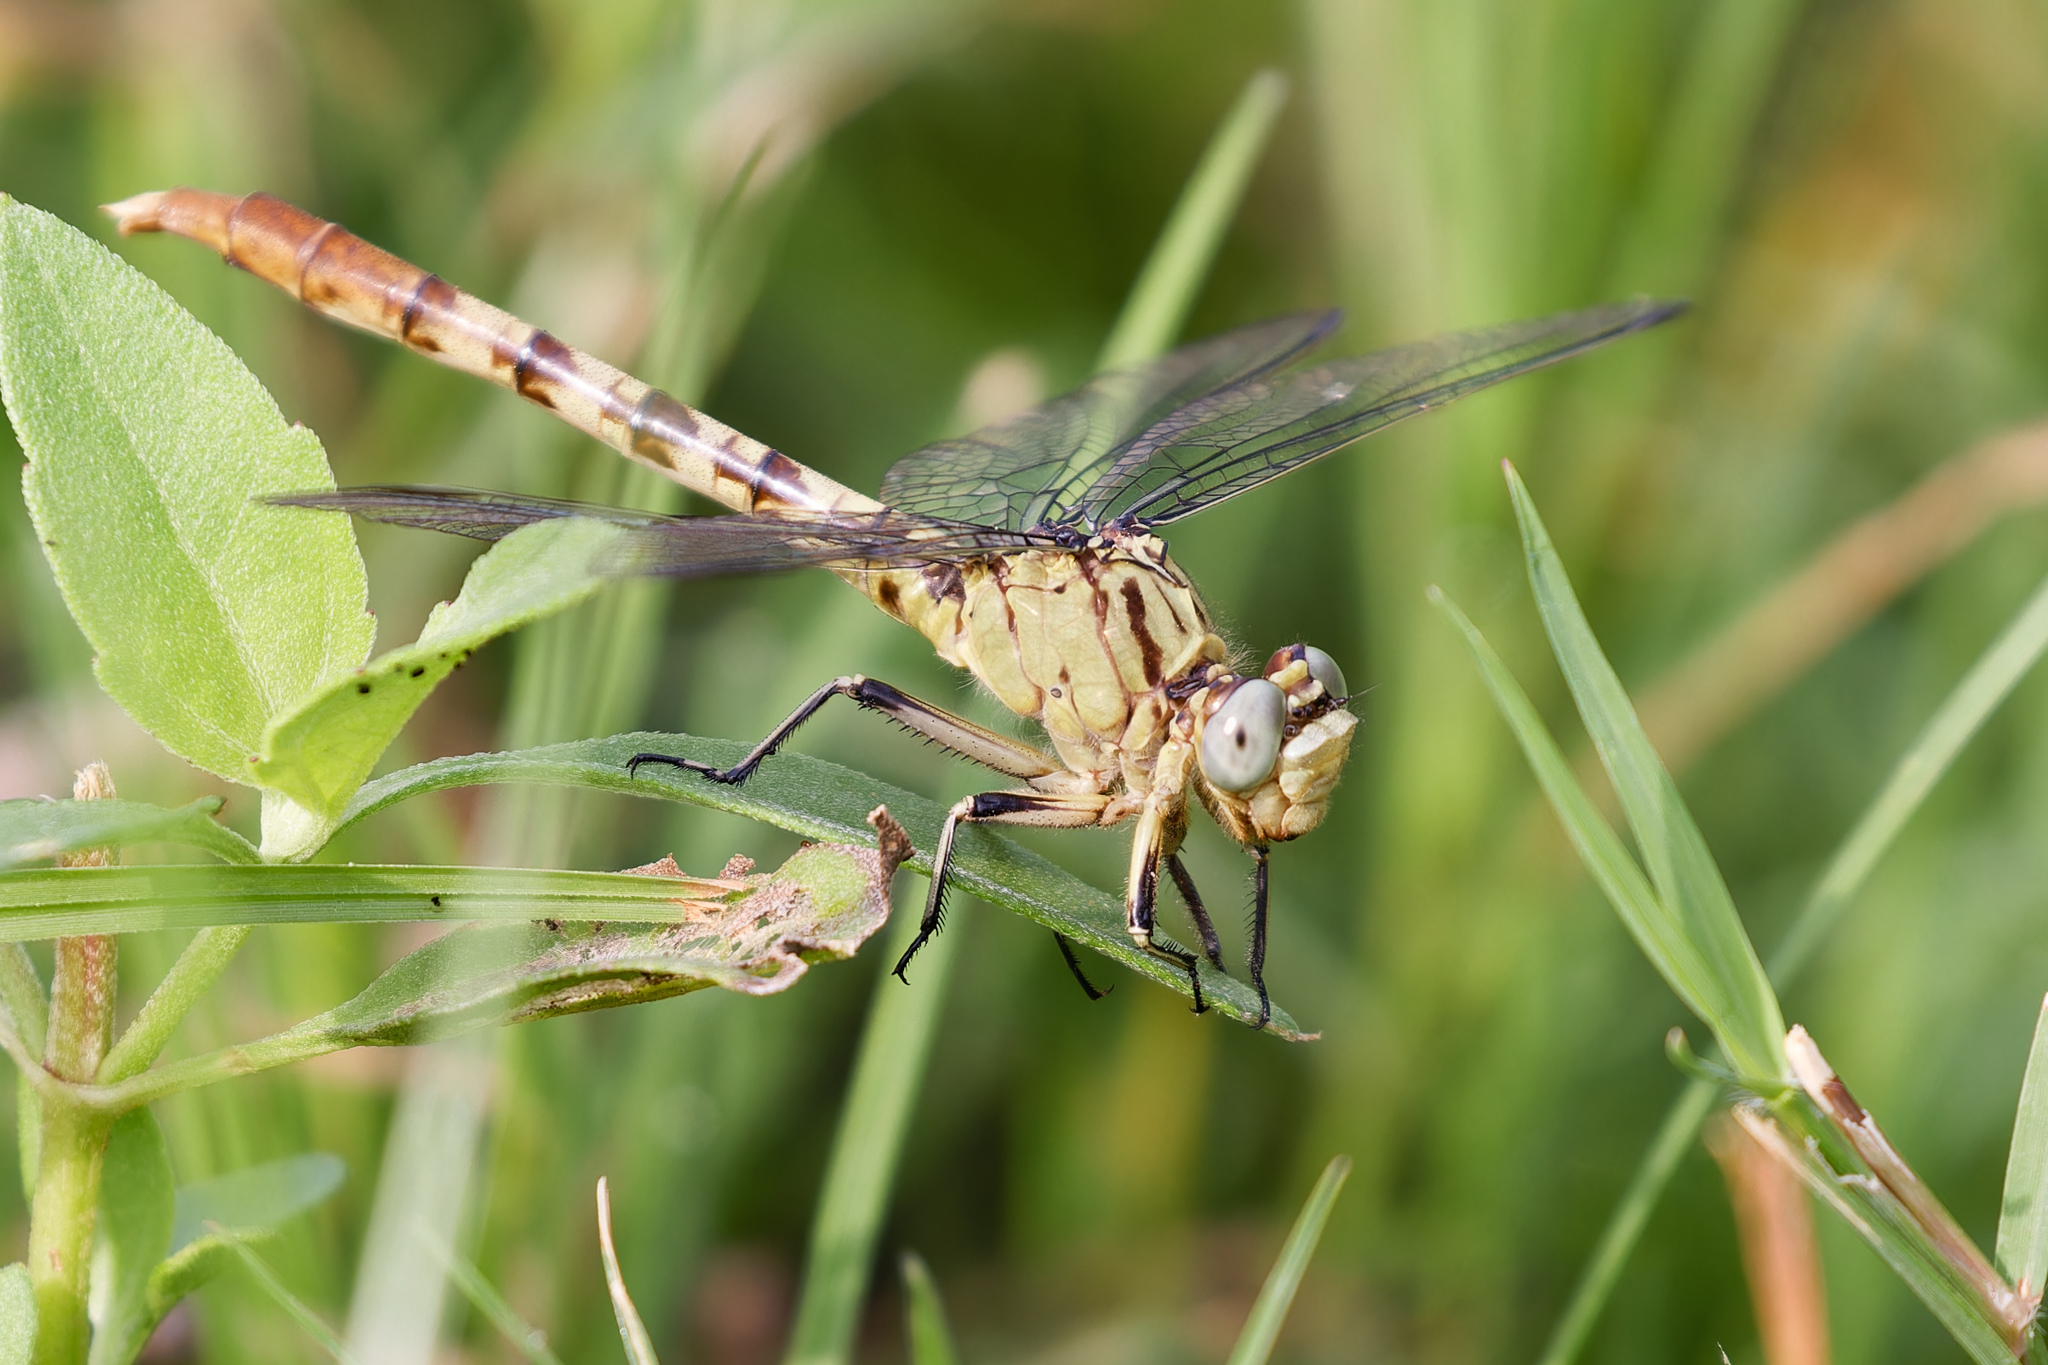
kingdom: Animalia
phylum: Arthropoda
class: Insecta
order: Odonata
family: Gomphidae
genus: Arigomphus
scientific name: Arigomphus submedianus
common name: Jade clubtail
